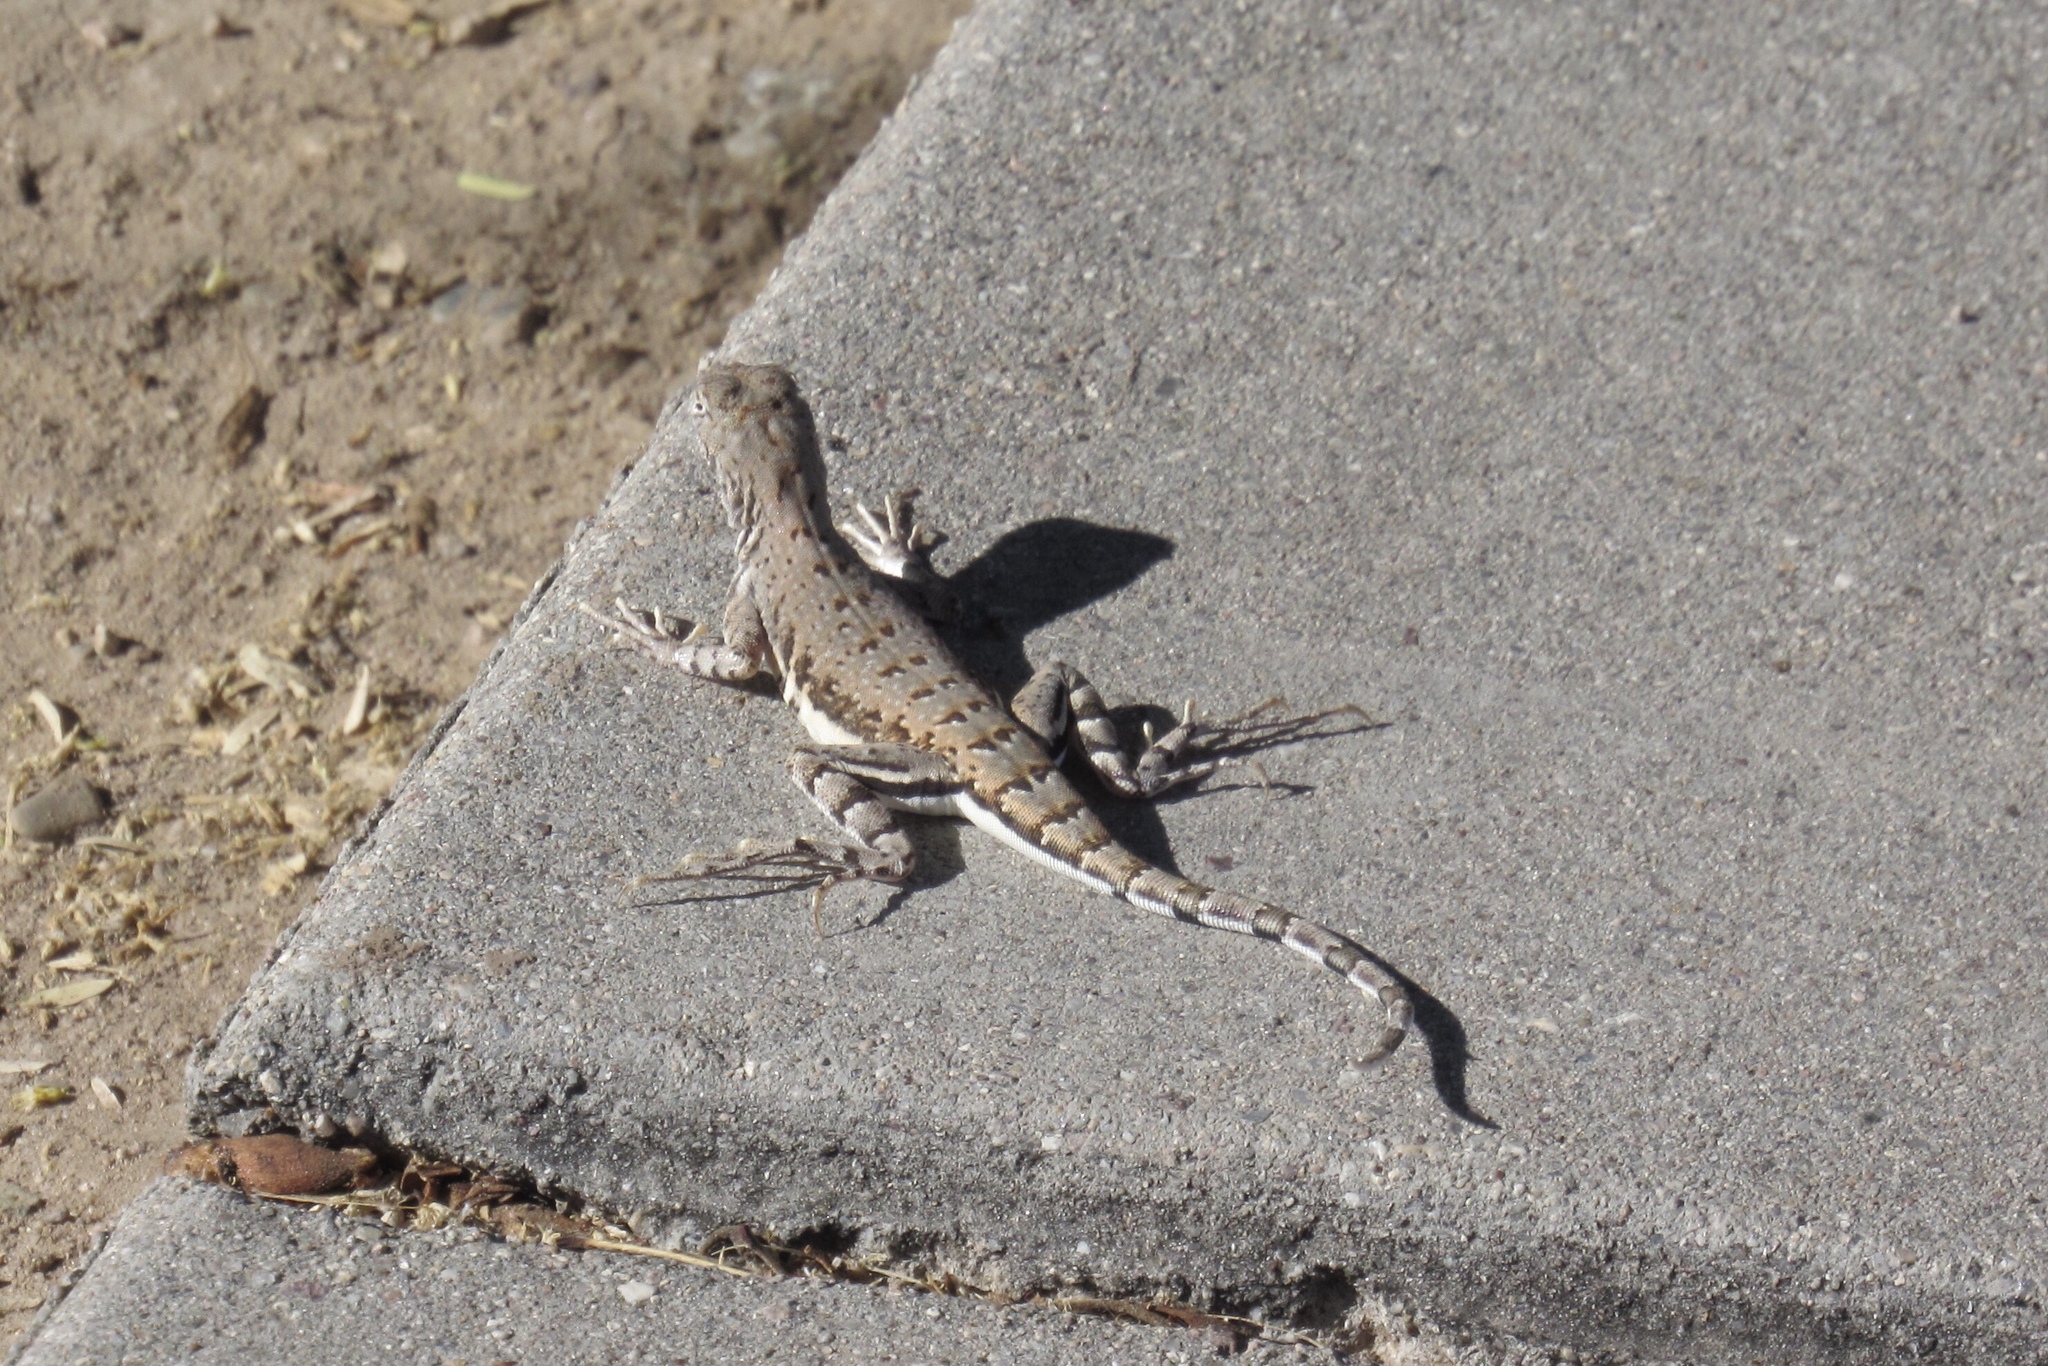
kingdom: Animalia
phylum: Chordata
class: Squamata
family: Phrynosomatidae
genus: Callisaurus
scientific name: Callisaurus draconoides
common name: Zebra-tailed lizard
